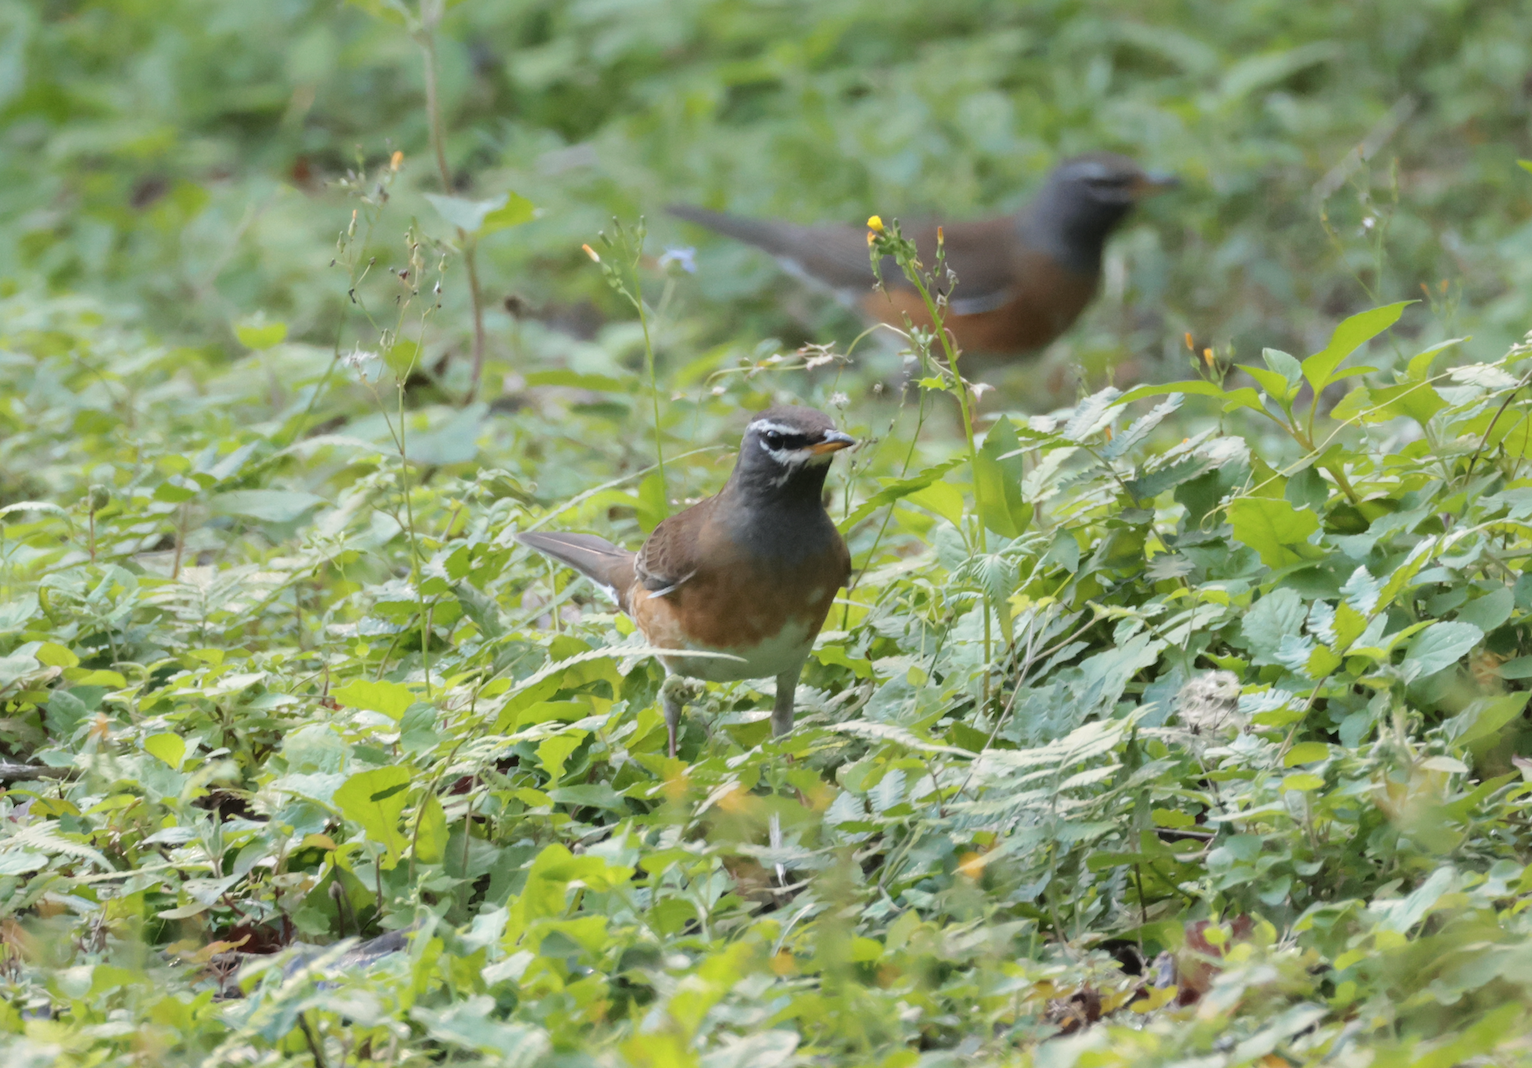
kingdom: Animalia
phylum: Chordata
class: Aves
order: Passeriformes
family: Turdidae
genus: Turdus
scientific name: Turdus obscurus
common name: Eyebrowed thrush
